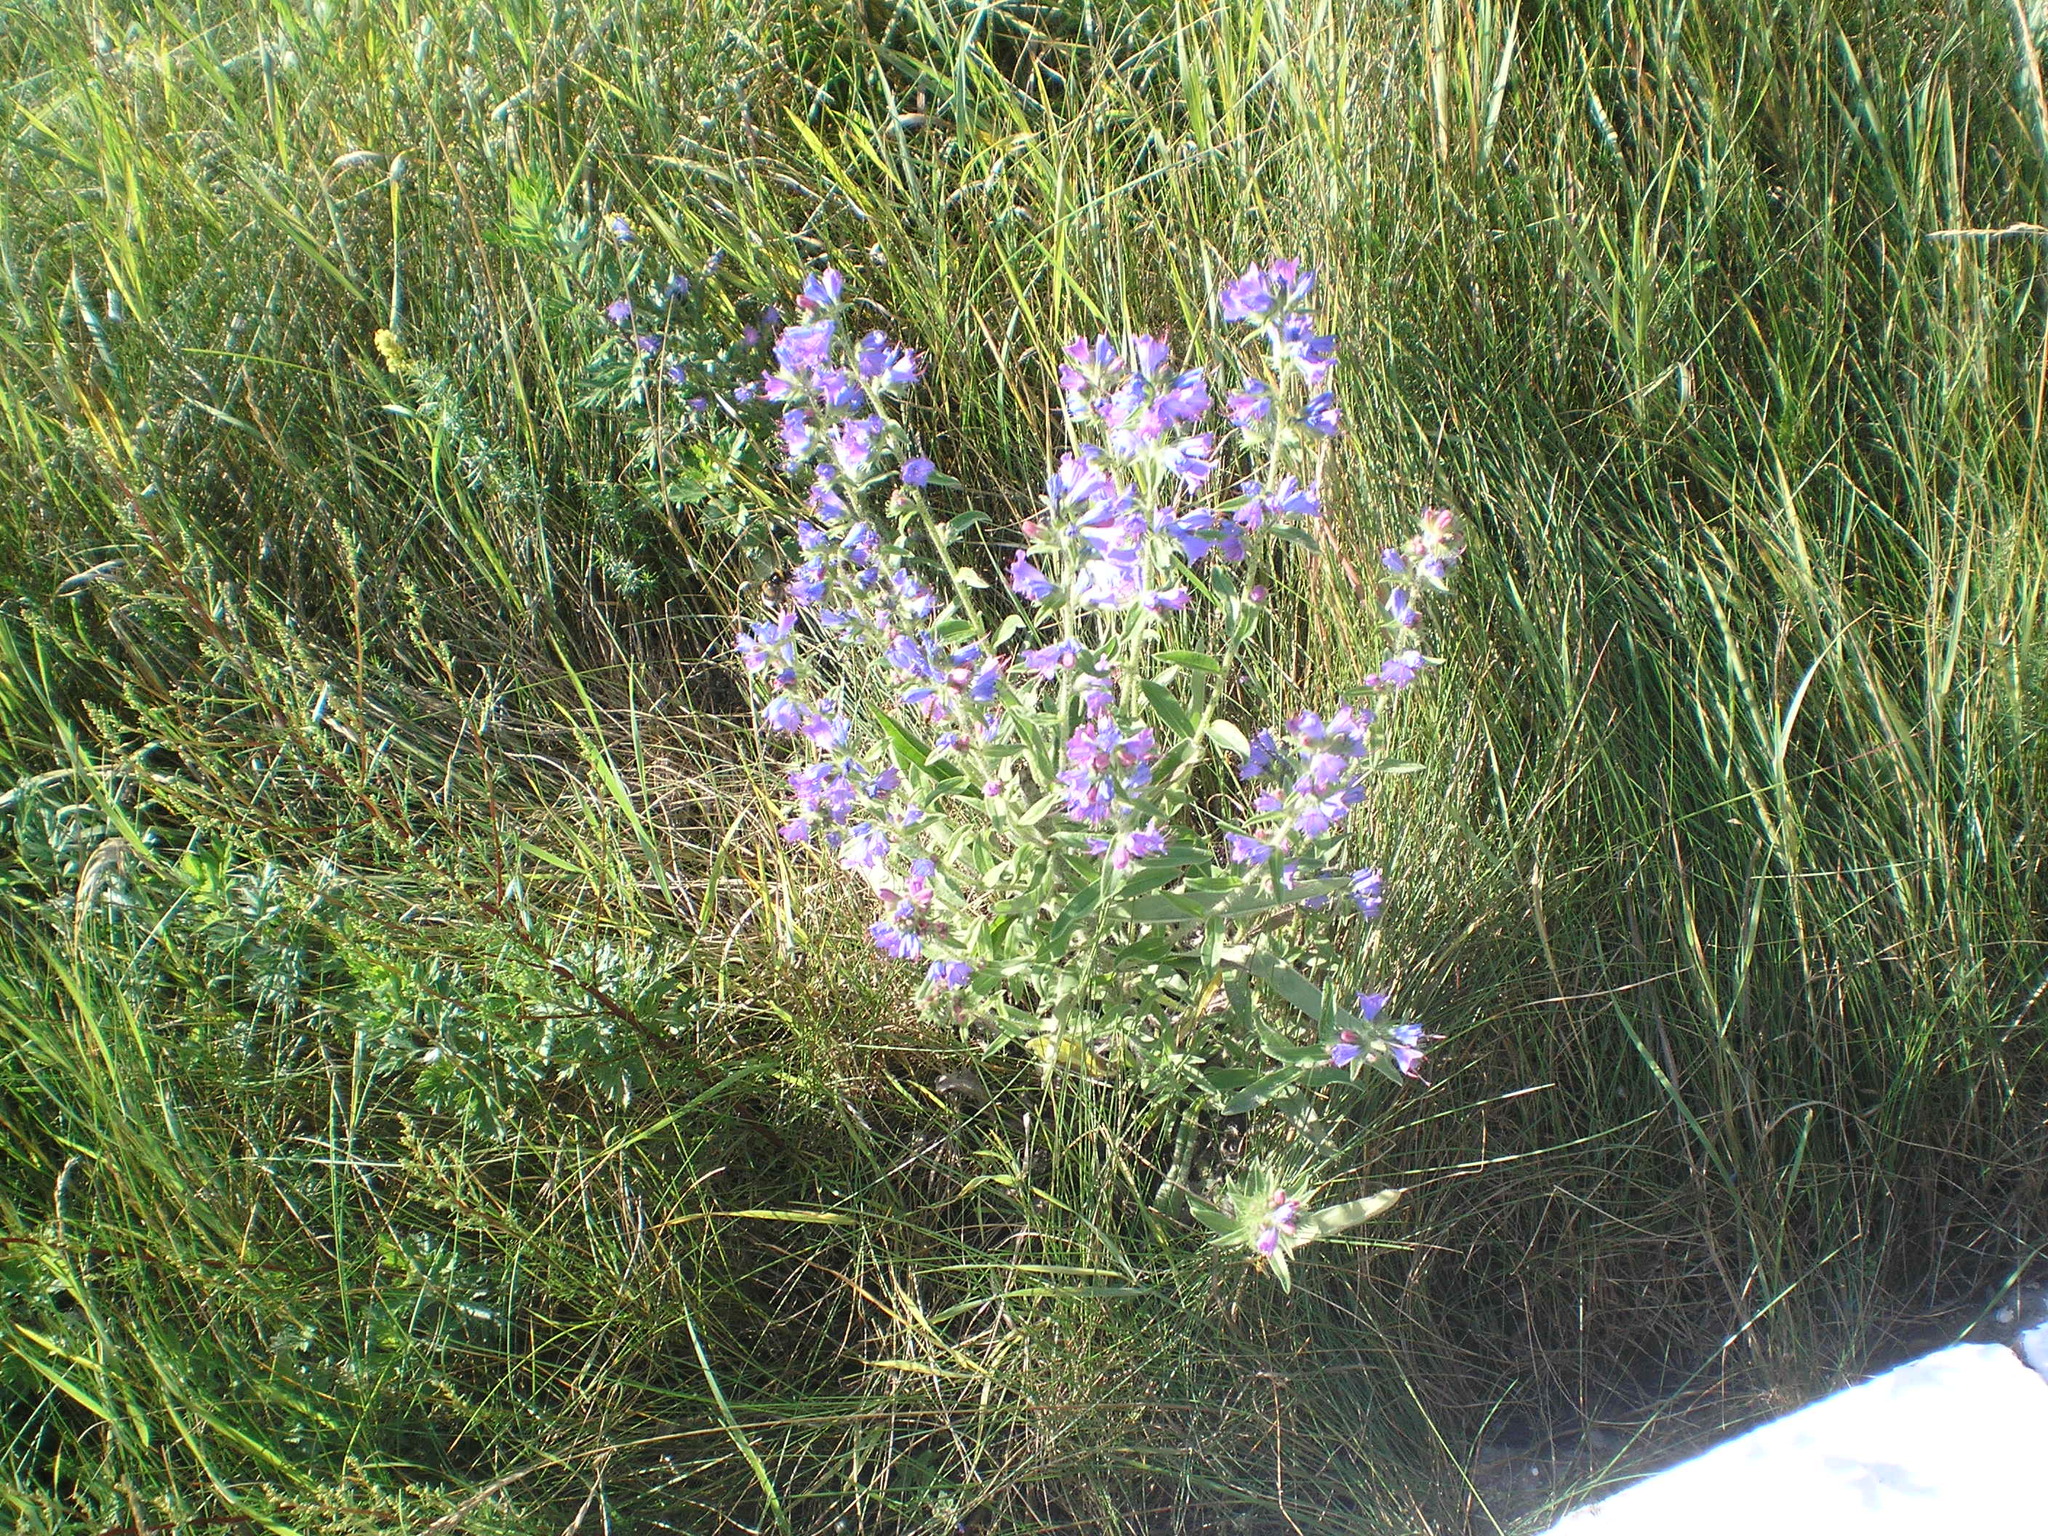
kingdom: Plantae
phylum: Tracheophyta
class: Magnoliopsida
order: Boraginales
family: Boraginaceae
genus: Echium
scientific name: Echium vulgare
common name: Common viper's bugloss
